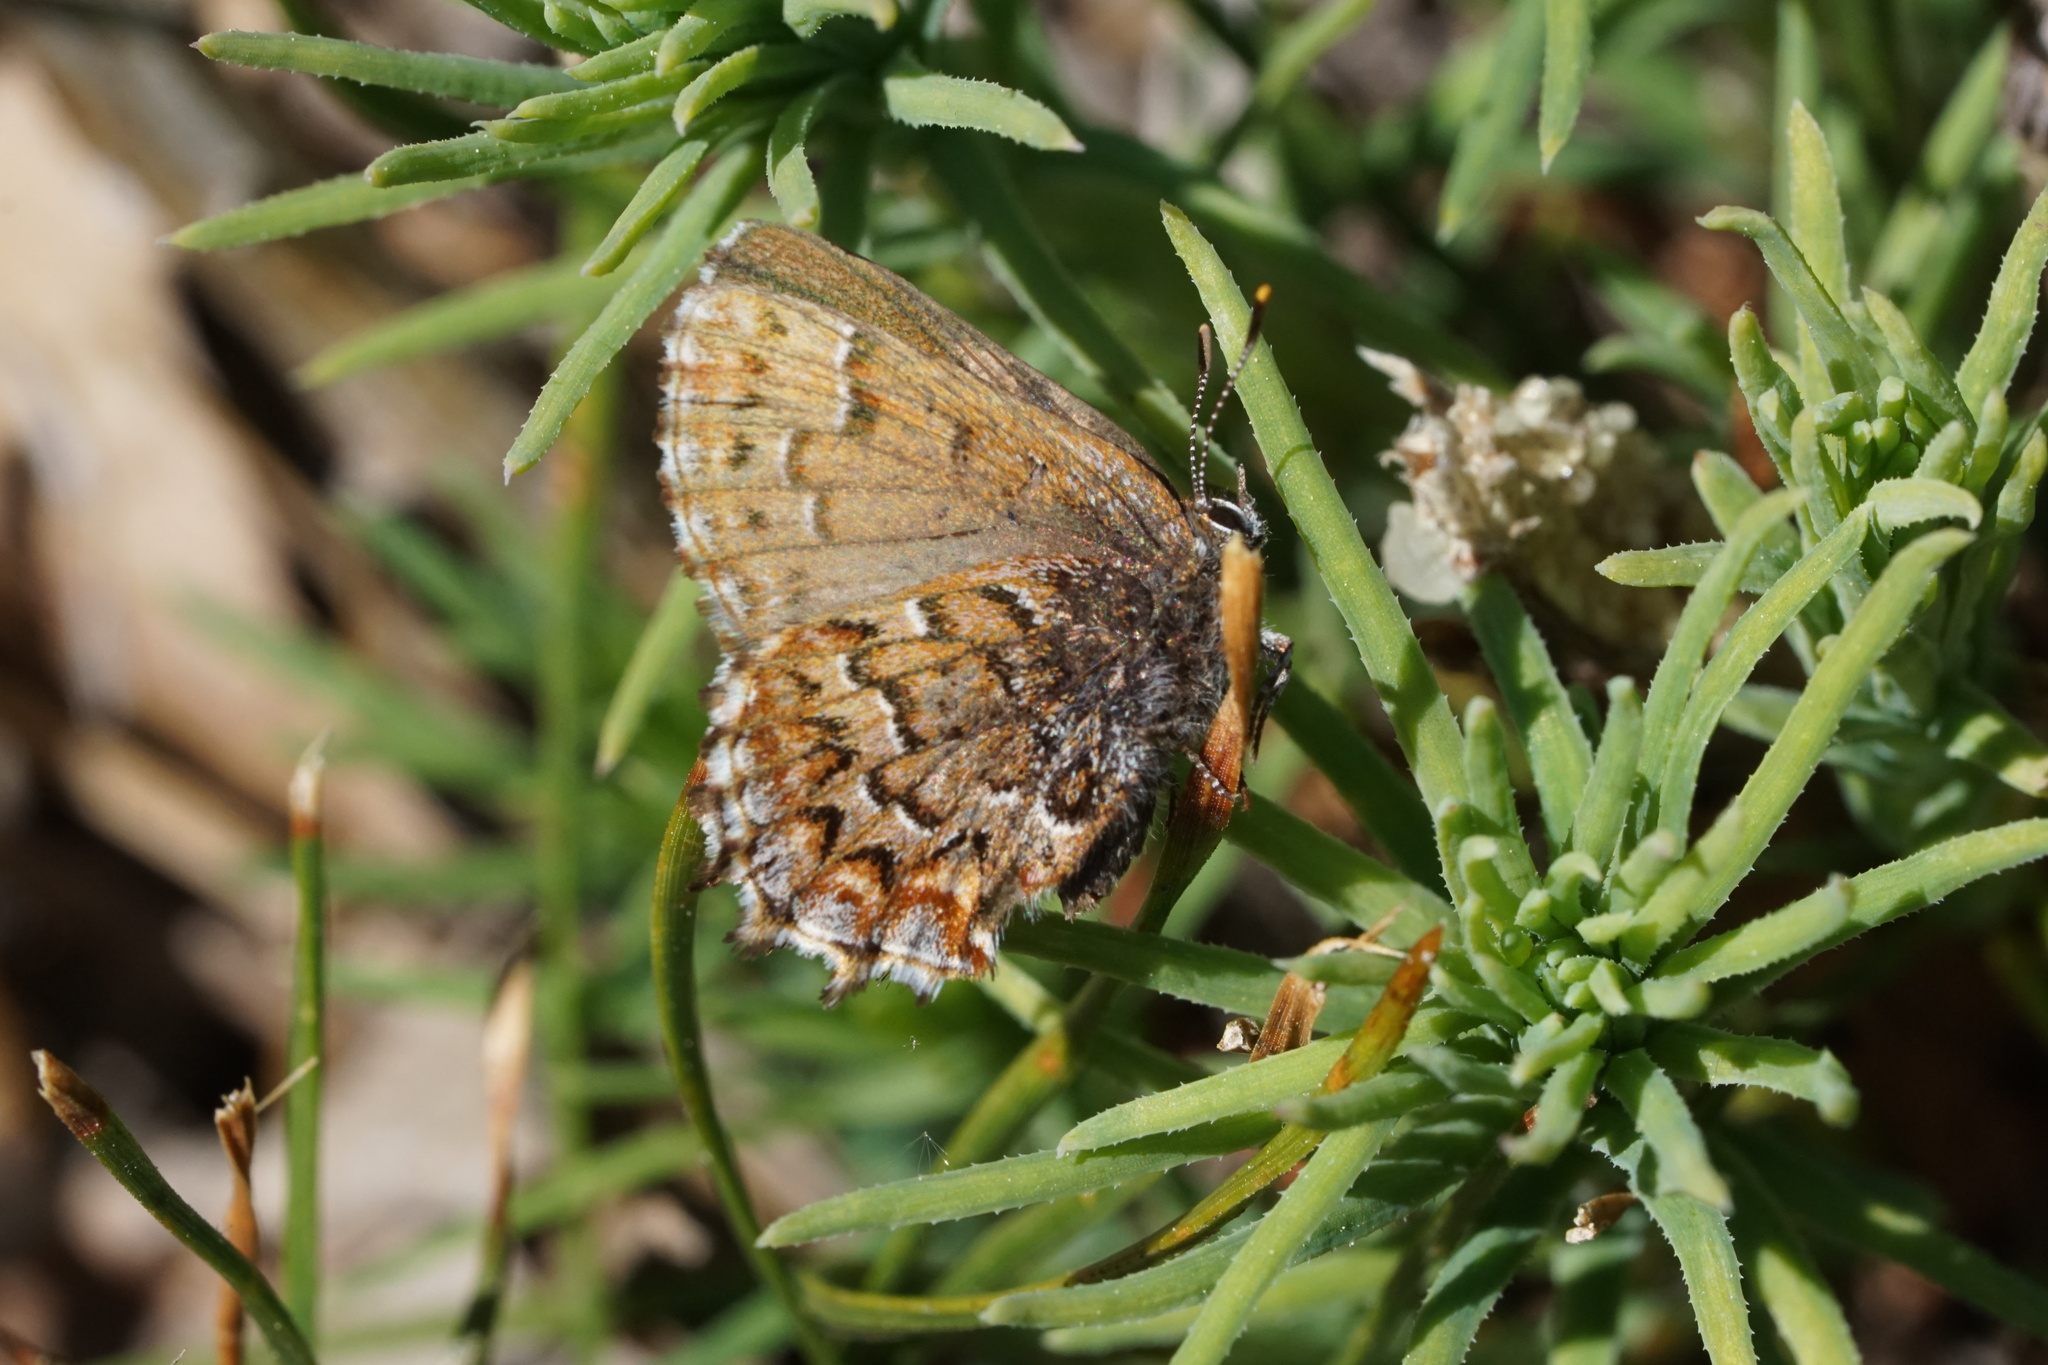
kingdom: Animalia
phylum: Arthropoda
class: Insecta
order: Lepidoptera
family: Lycaenidae
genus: Incisalia
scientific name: Incisalia niphon
